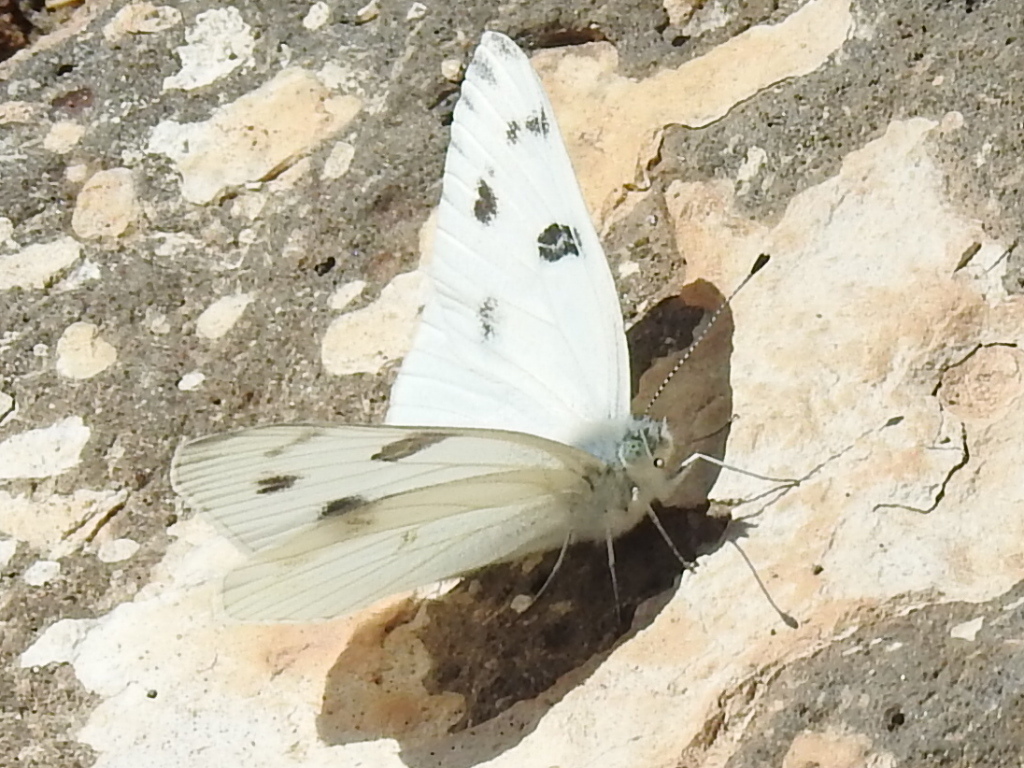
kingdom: Animalia
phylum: Arthropoda
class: Insecta
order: Lepidoptera
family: Pieridae
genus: Pontia
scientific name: Pontia protodice
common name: Checkered white
